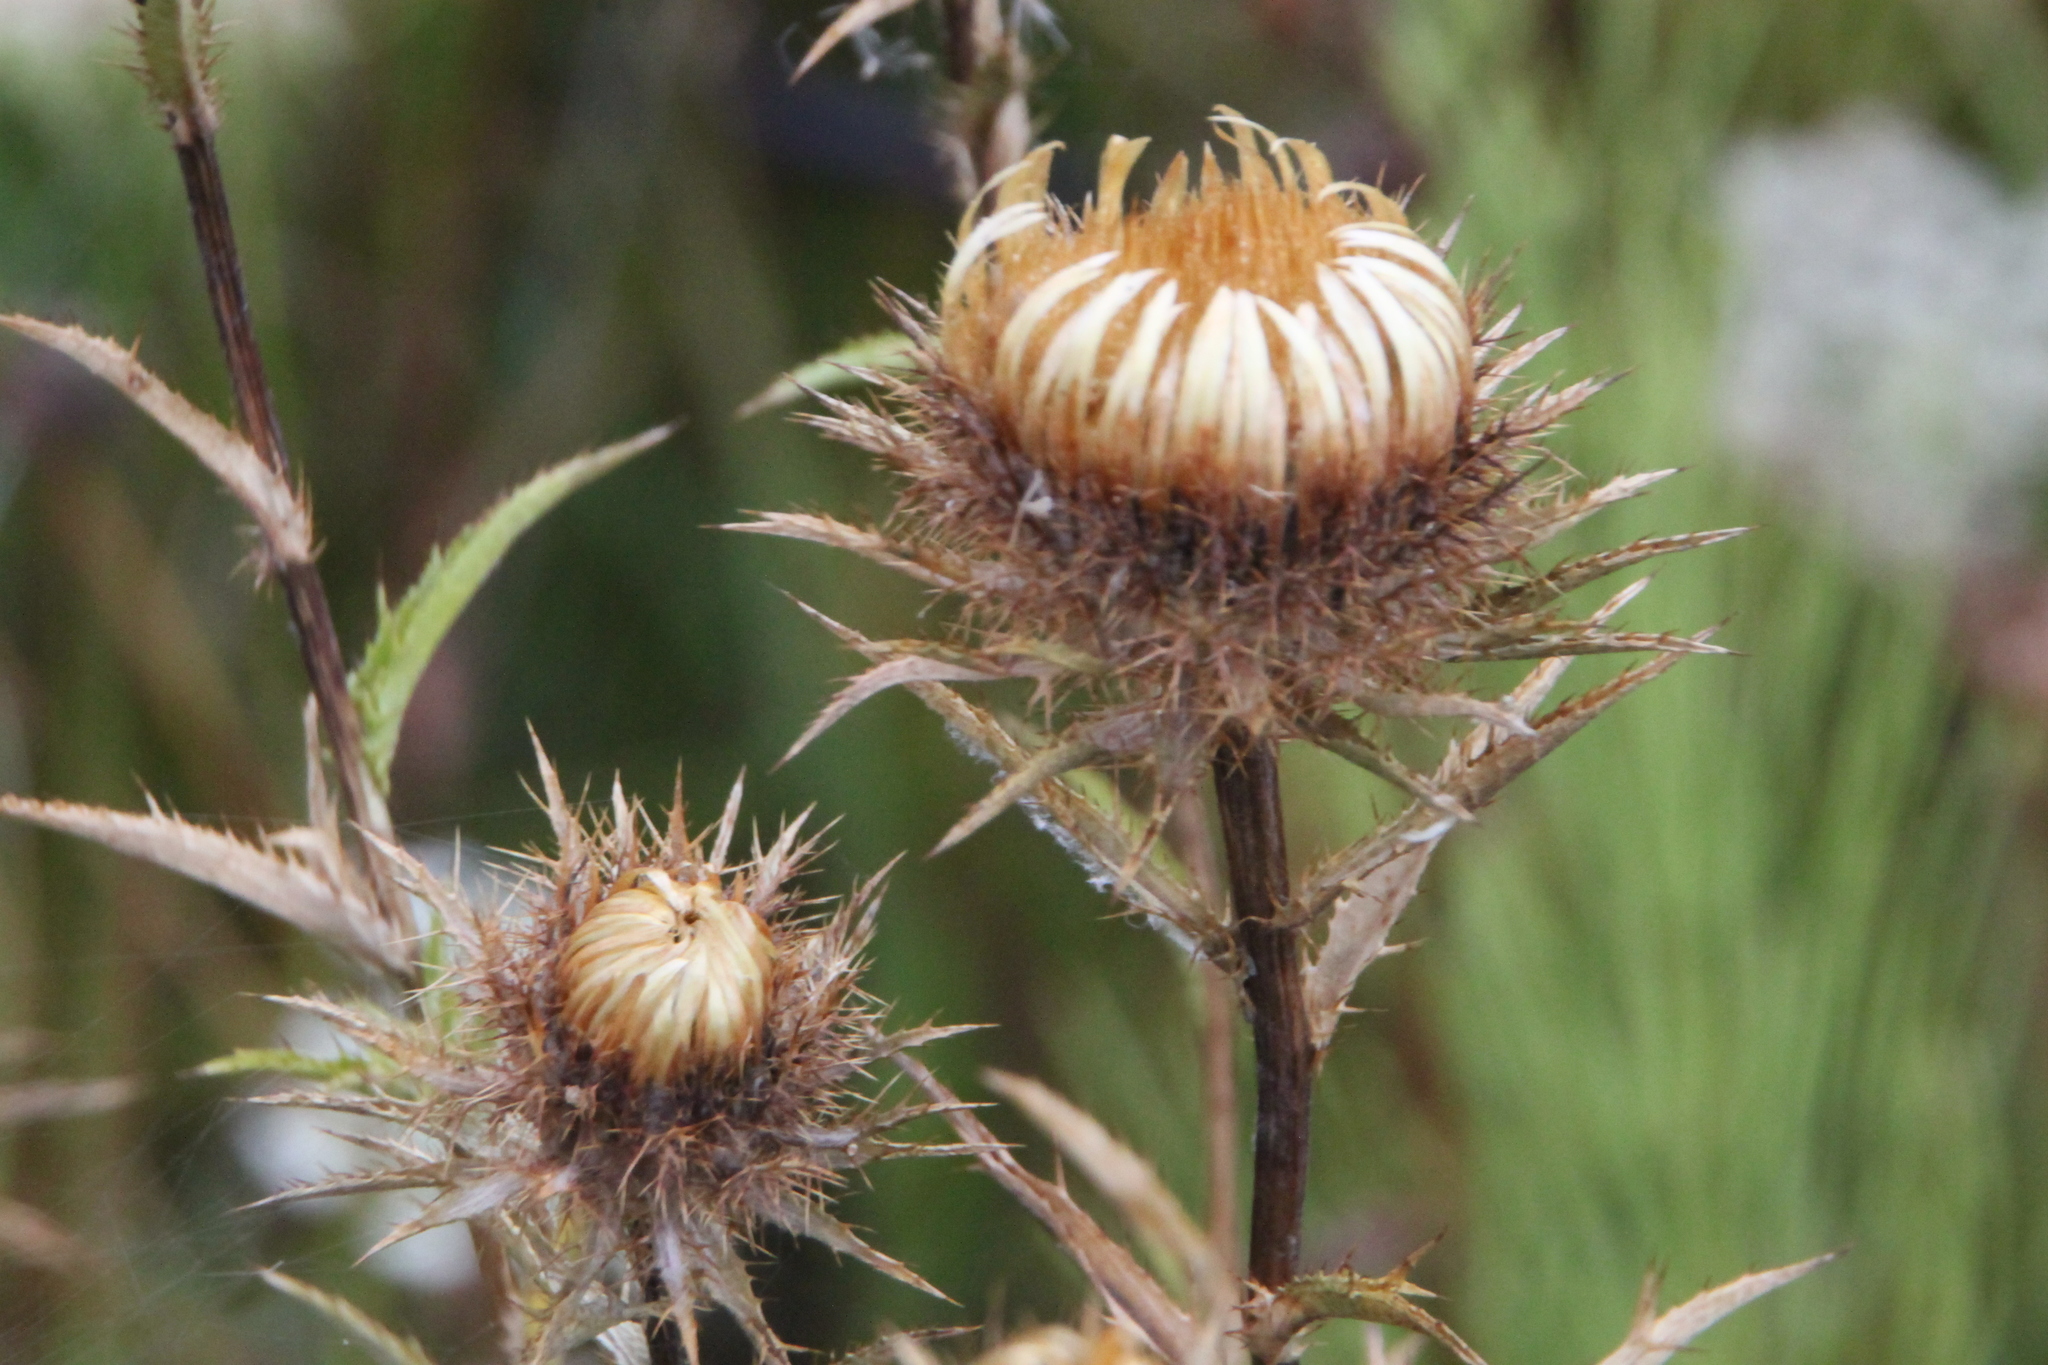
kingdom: Plantae
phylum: Tracheophyta
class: Magnoliopsida
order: Asterales
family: Asteraceae
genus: Carlina
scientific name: Carlina biebersteinii
